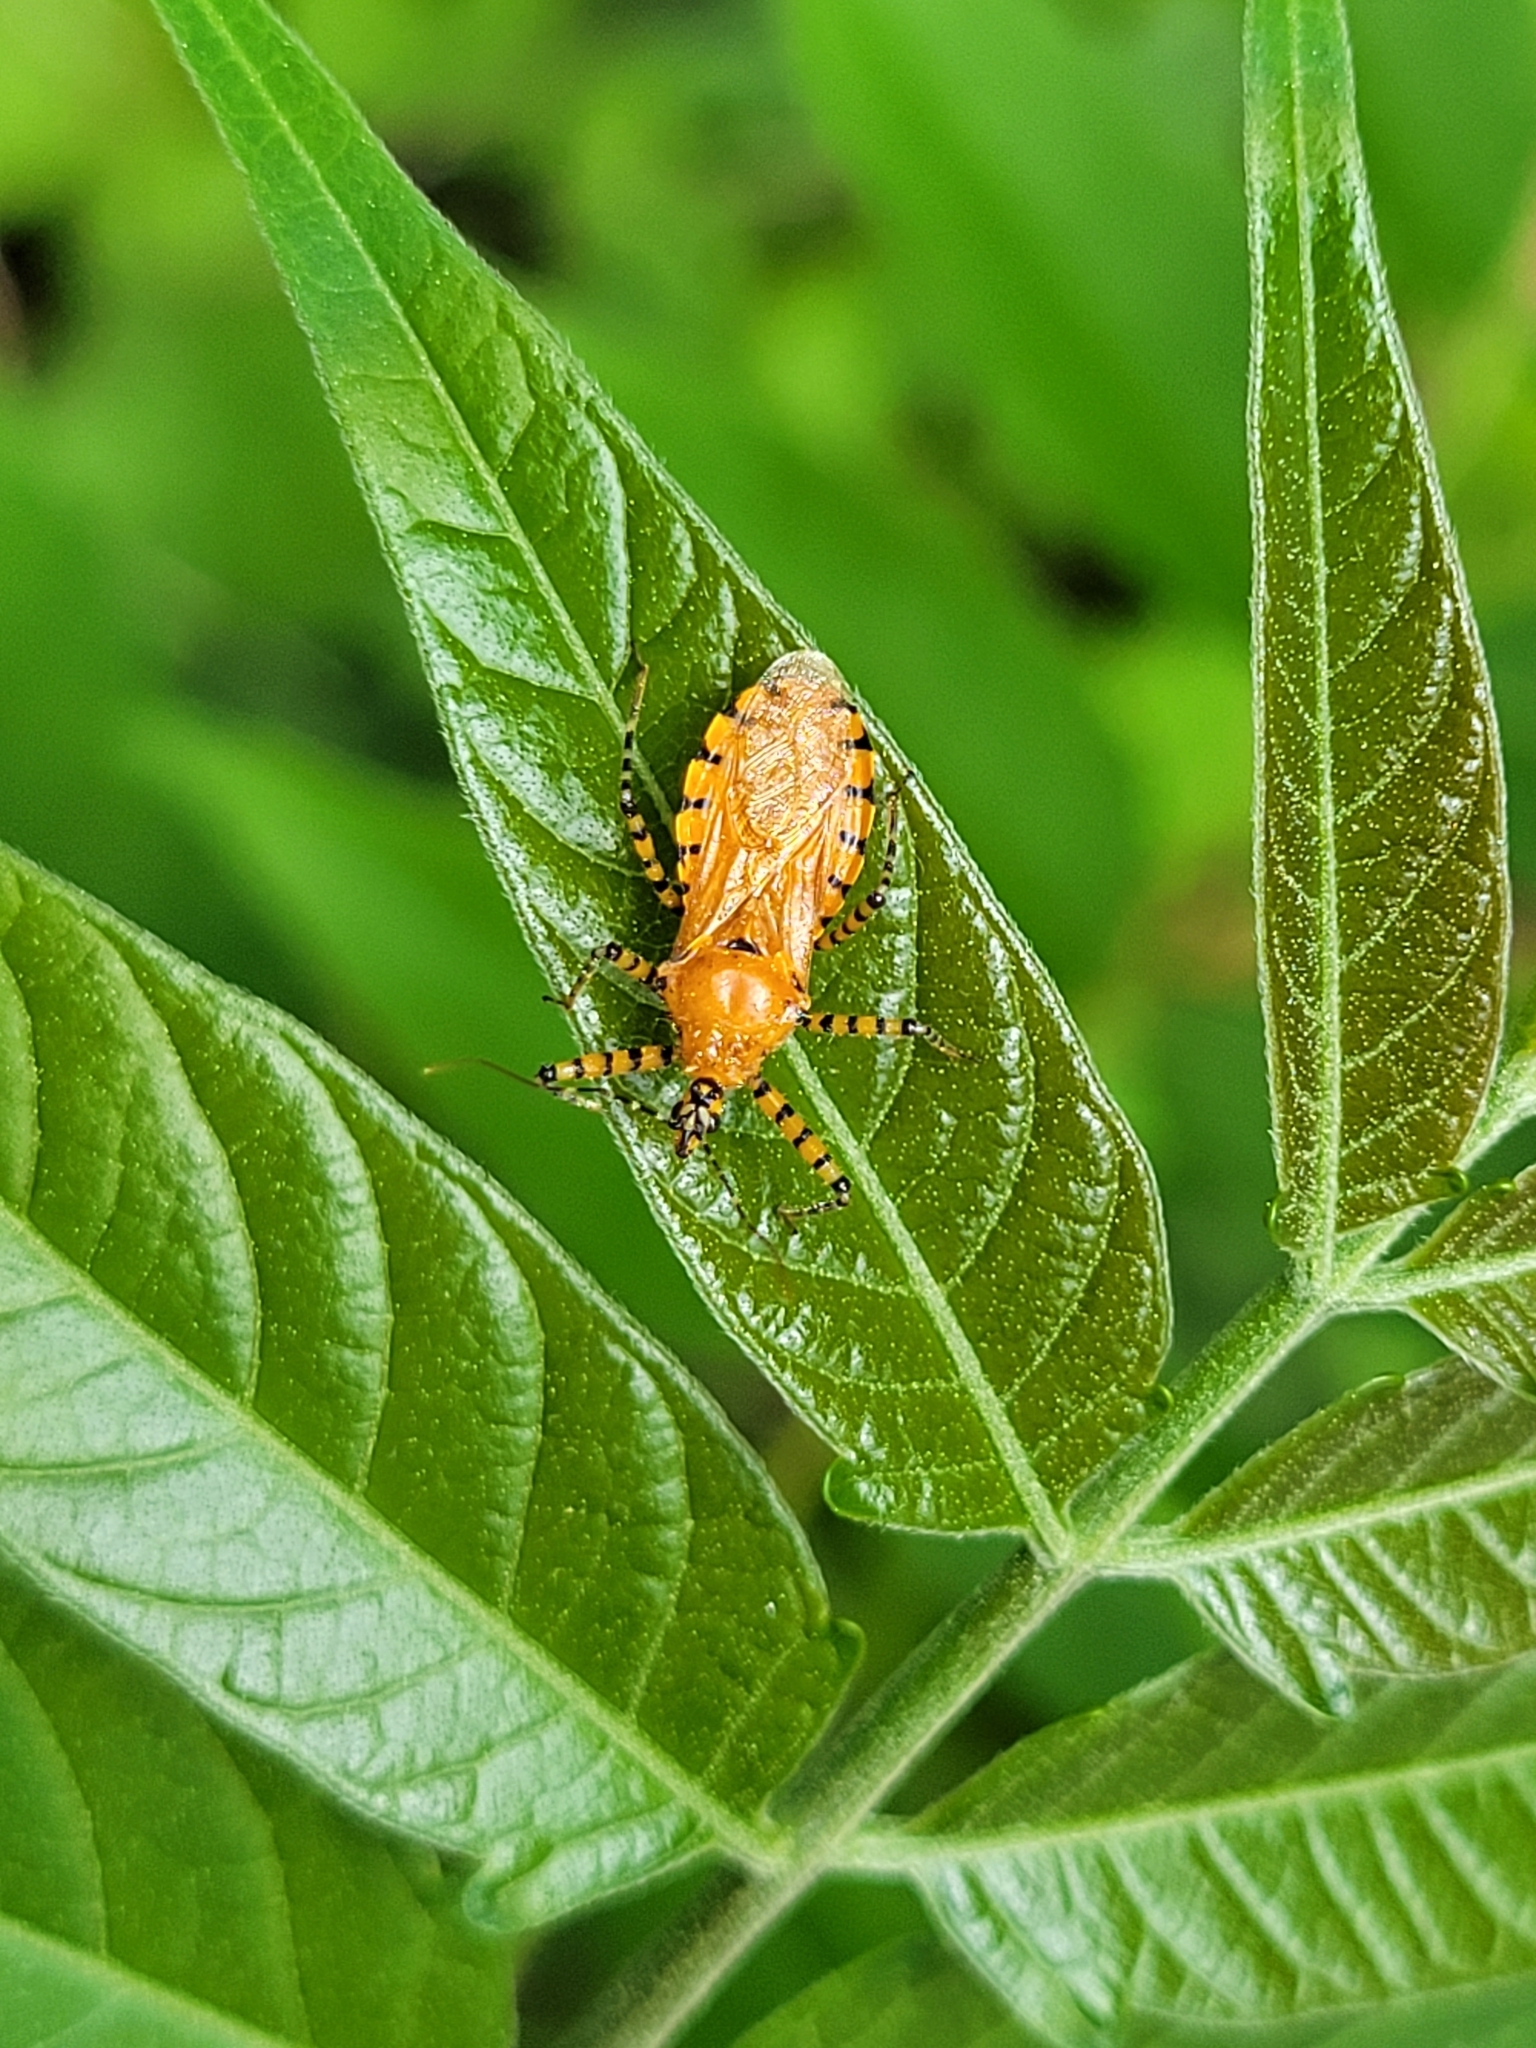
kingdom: Animalia
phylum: Arthropoda
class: Insecta
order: Hemiptera
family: Reduviidae
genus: Pselliopus
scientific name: Pselliopus barberi
